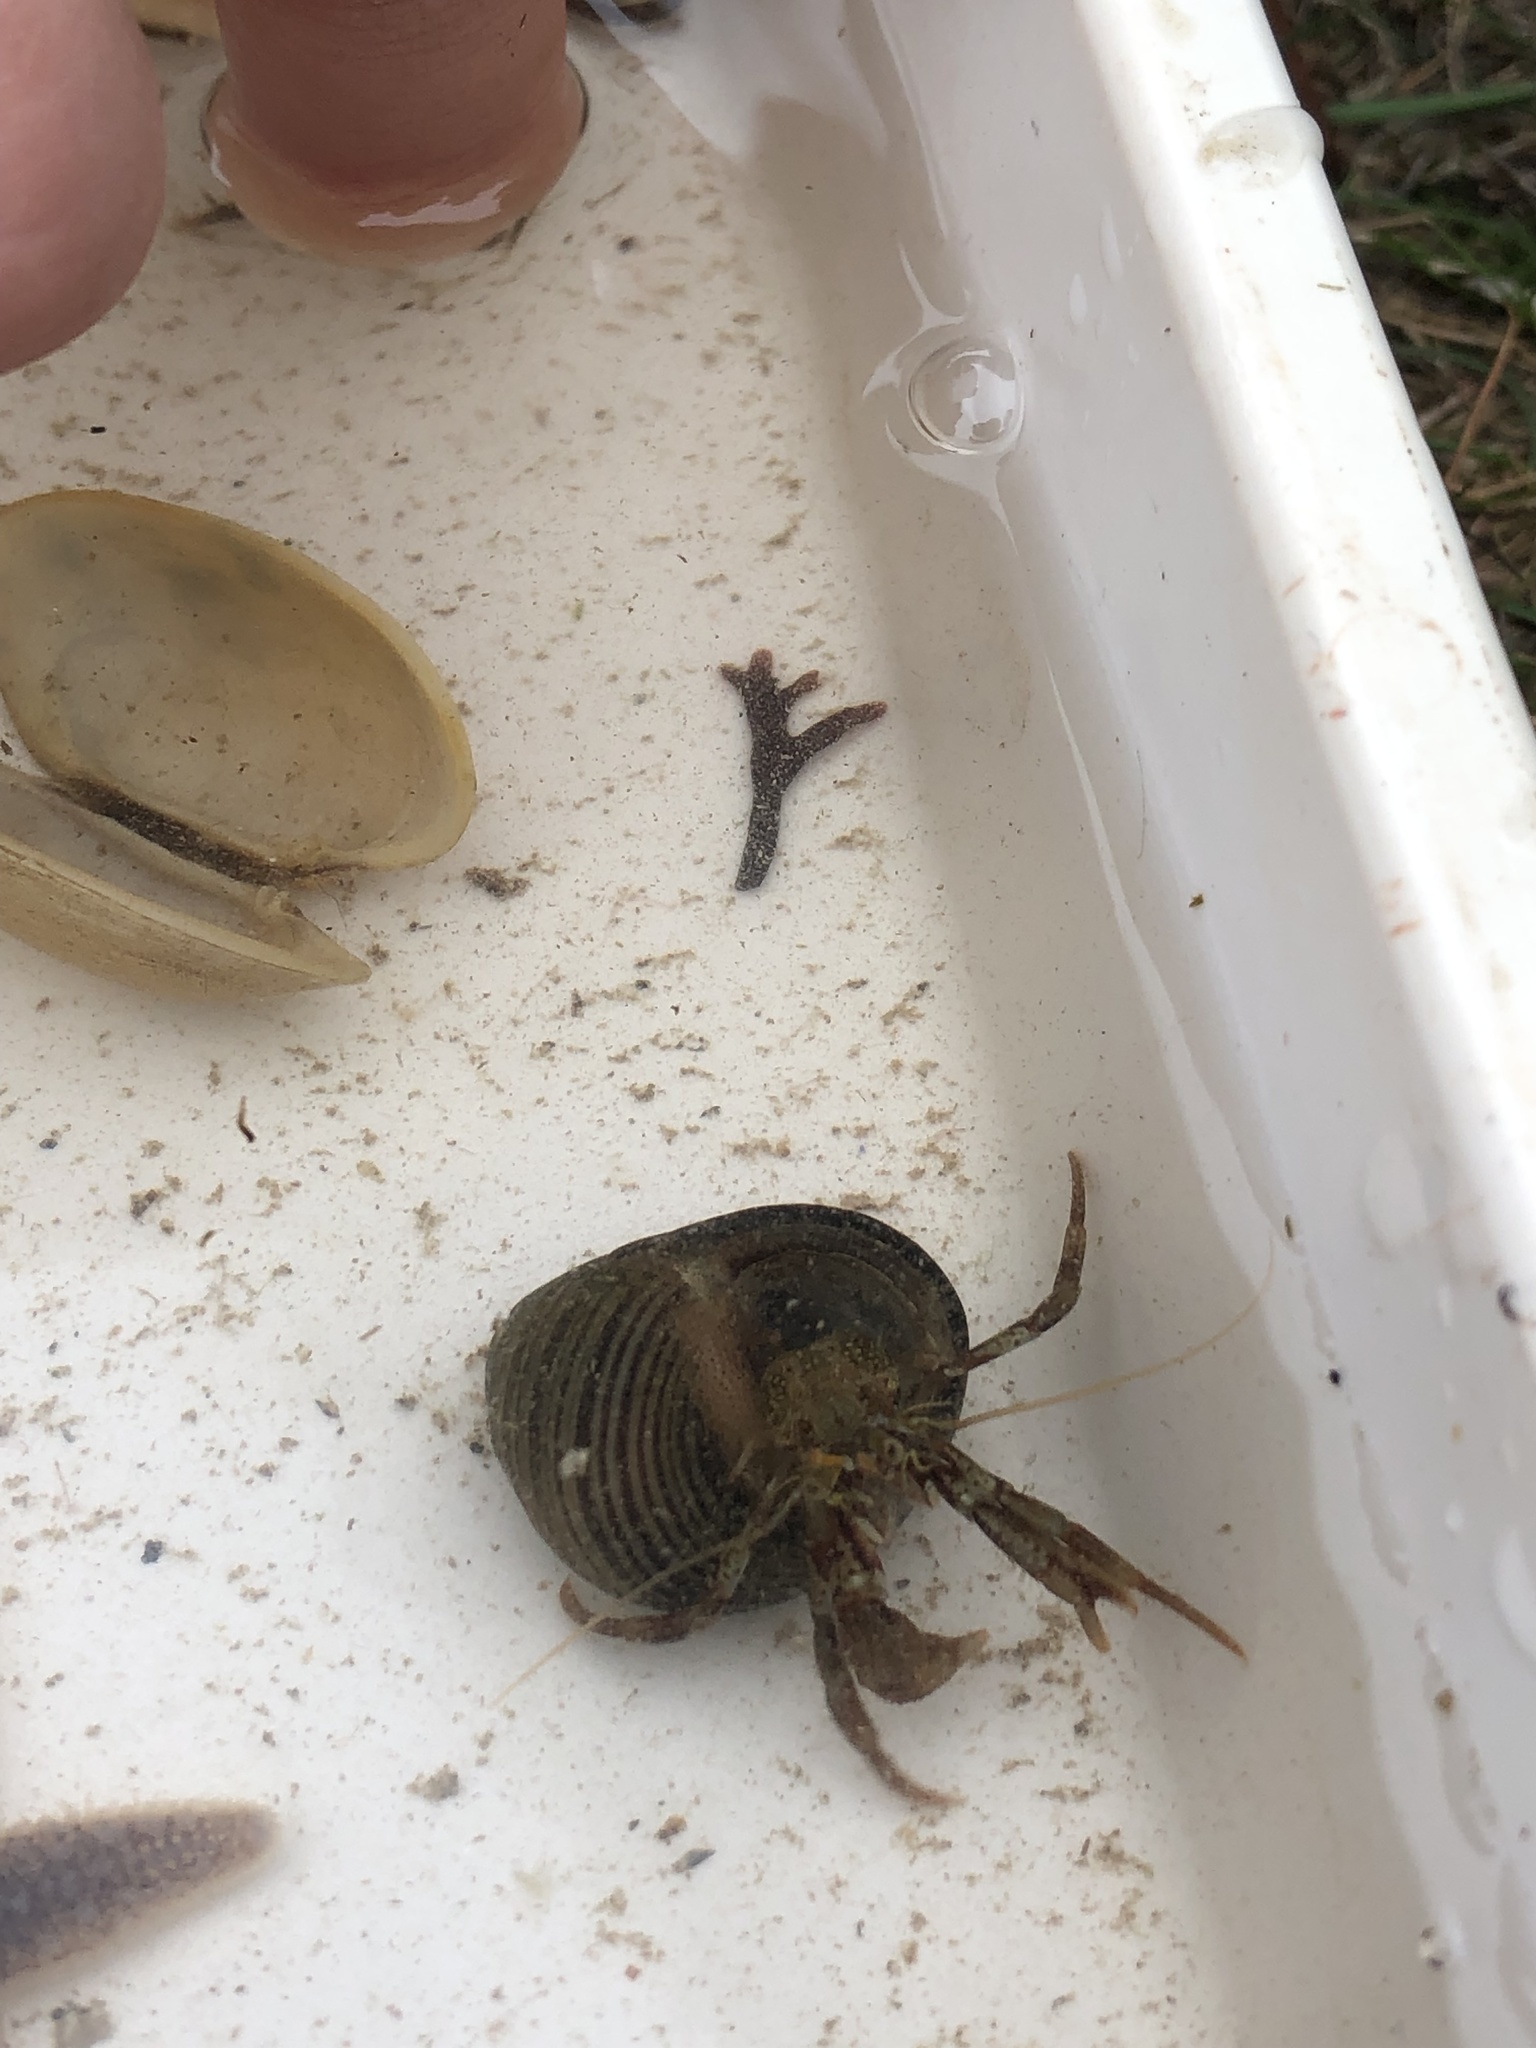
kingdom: Animalia
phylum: Arthropoda
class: Malacostraca
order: Decapoda
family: Paguridae
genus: Pagurus
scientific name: Pagurus bernhardus
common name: Hermit crab
